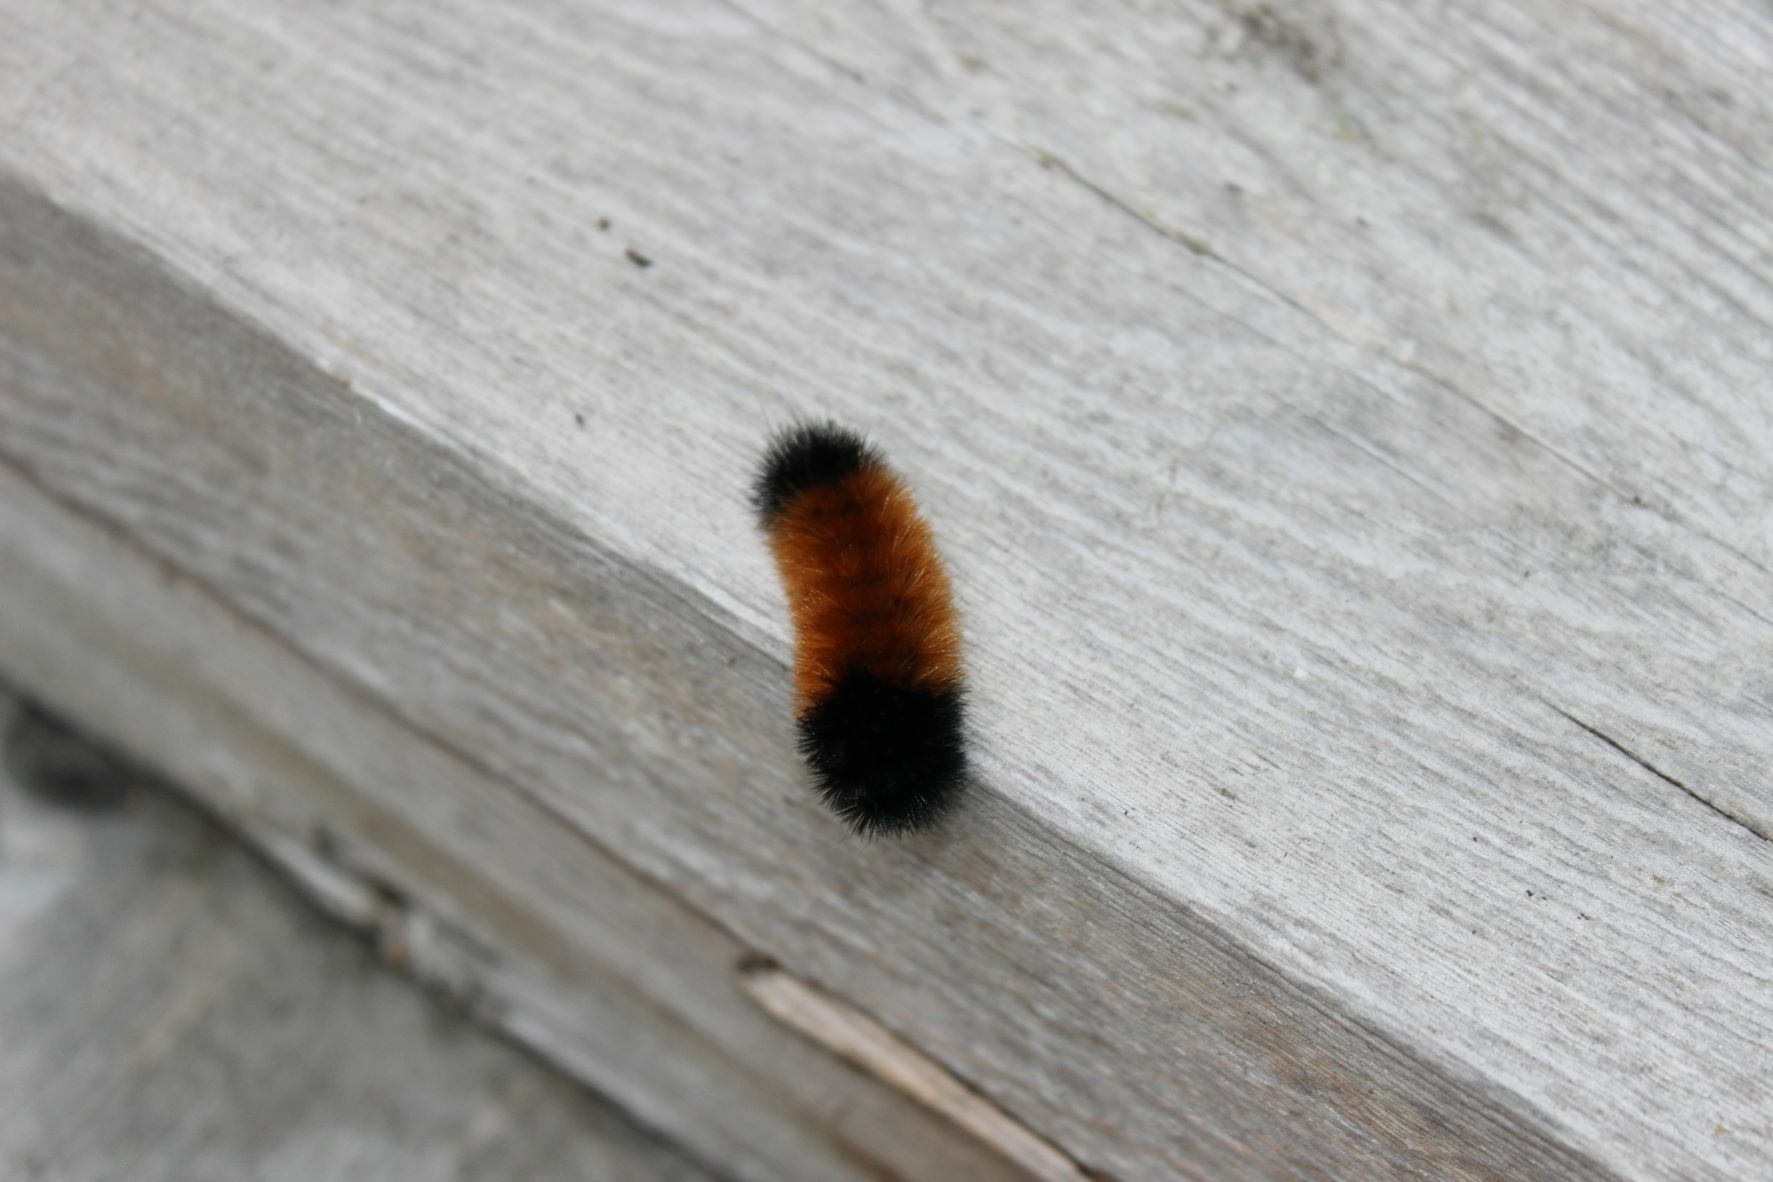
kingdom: Animalia
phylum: Arthropoda
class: Insecta
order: Lepidoptera
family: Erebidae
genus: Pyrrharctia
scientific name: Pyrrharctia isabella
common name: Isabella tiger moth
